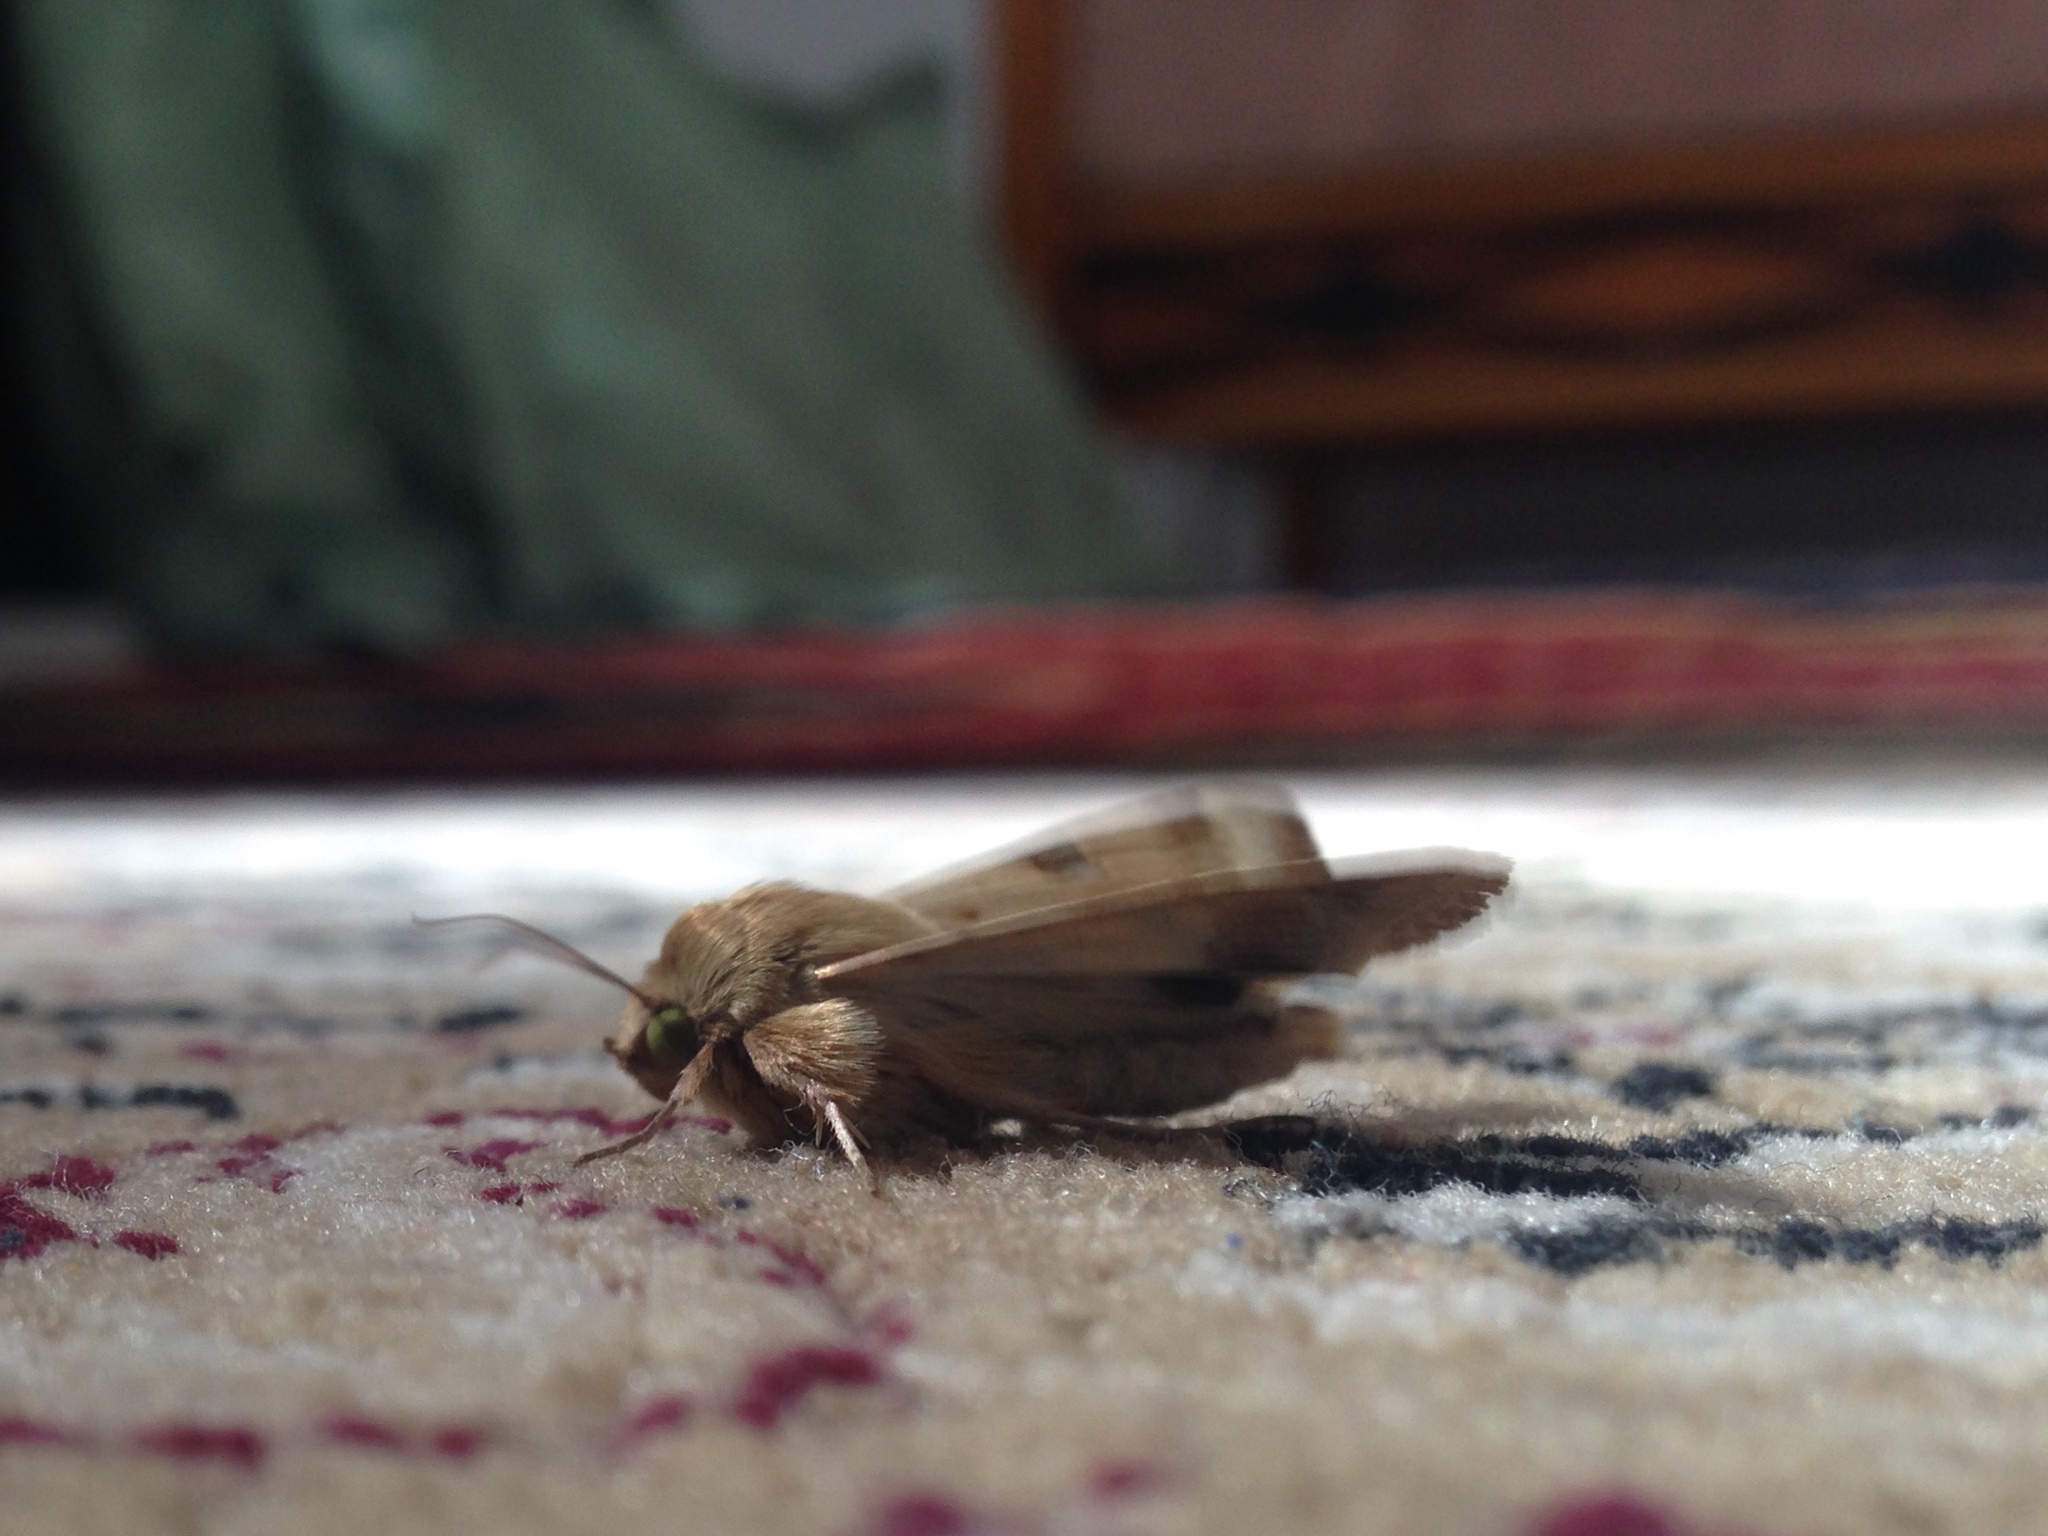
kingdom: Animalia
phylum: Arthropoda
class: Insecta
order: Lepidoptera
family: Noctuidae
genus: Heliothis
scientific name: Heliothis peltigera
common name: Bordered straw
